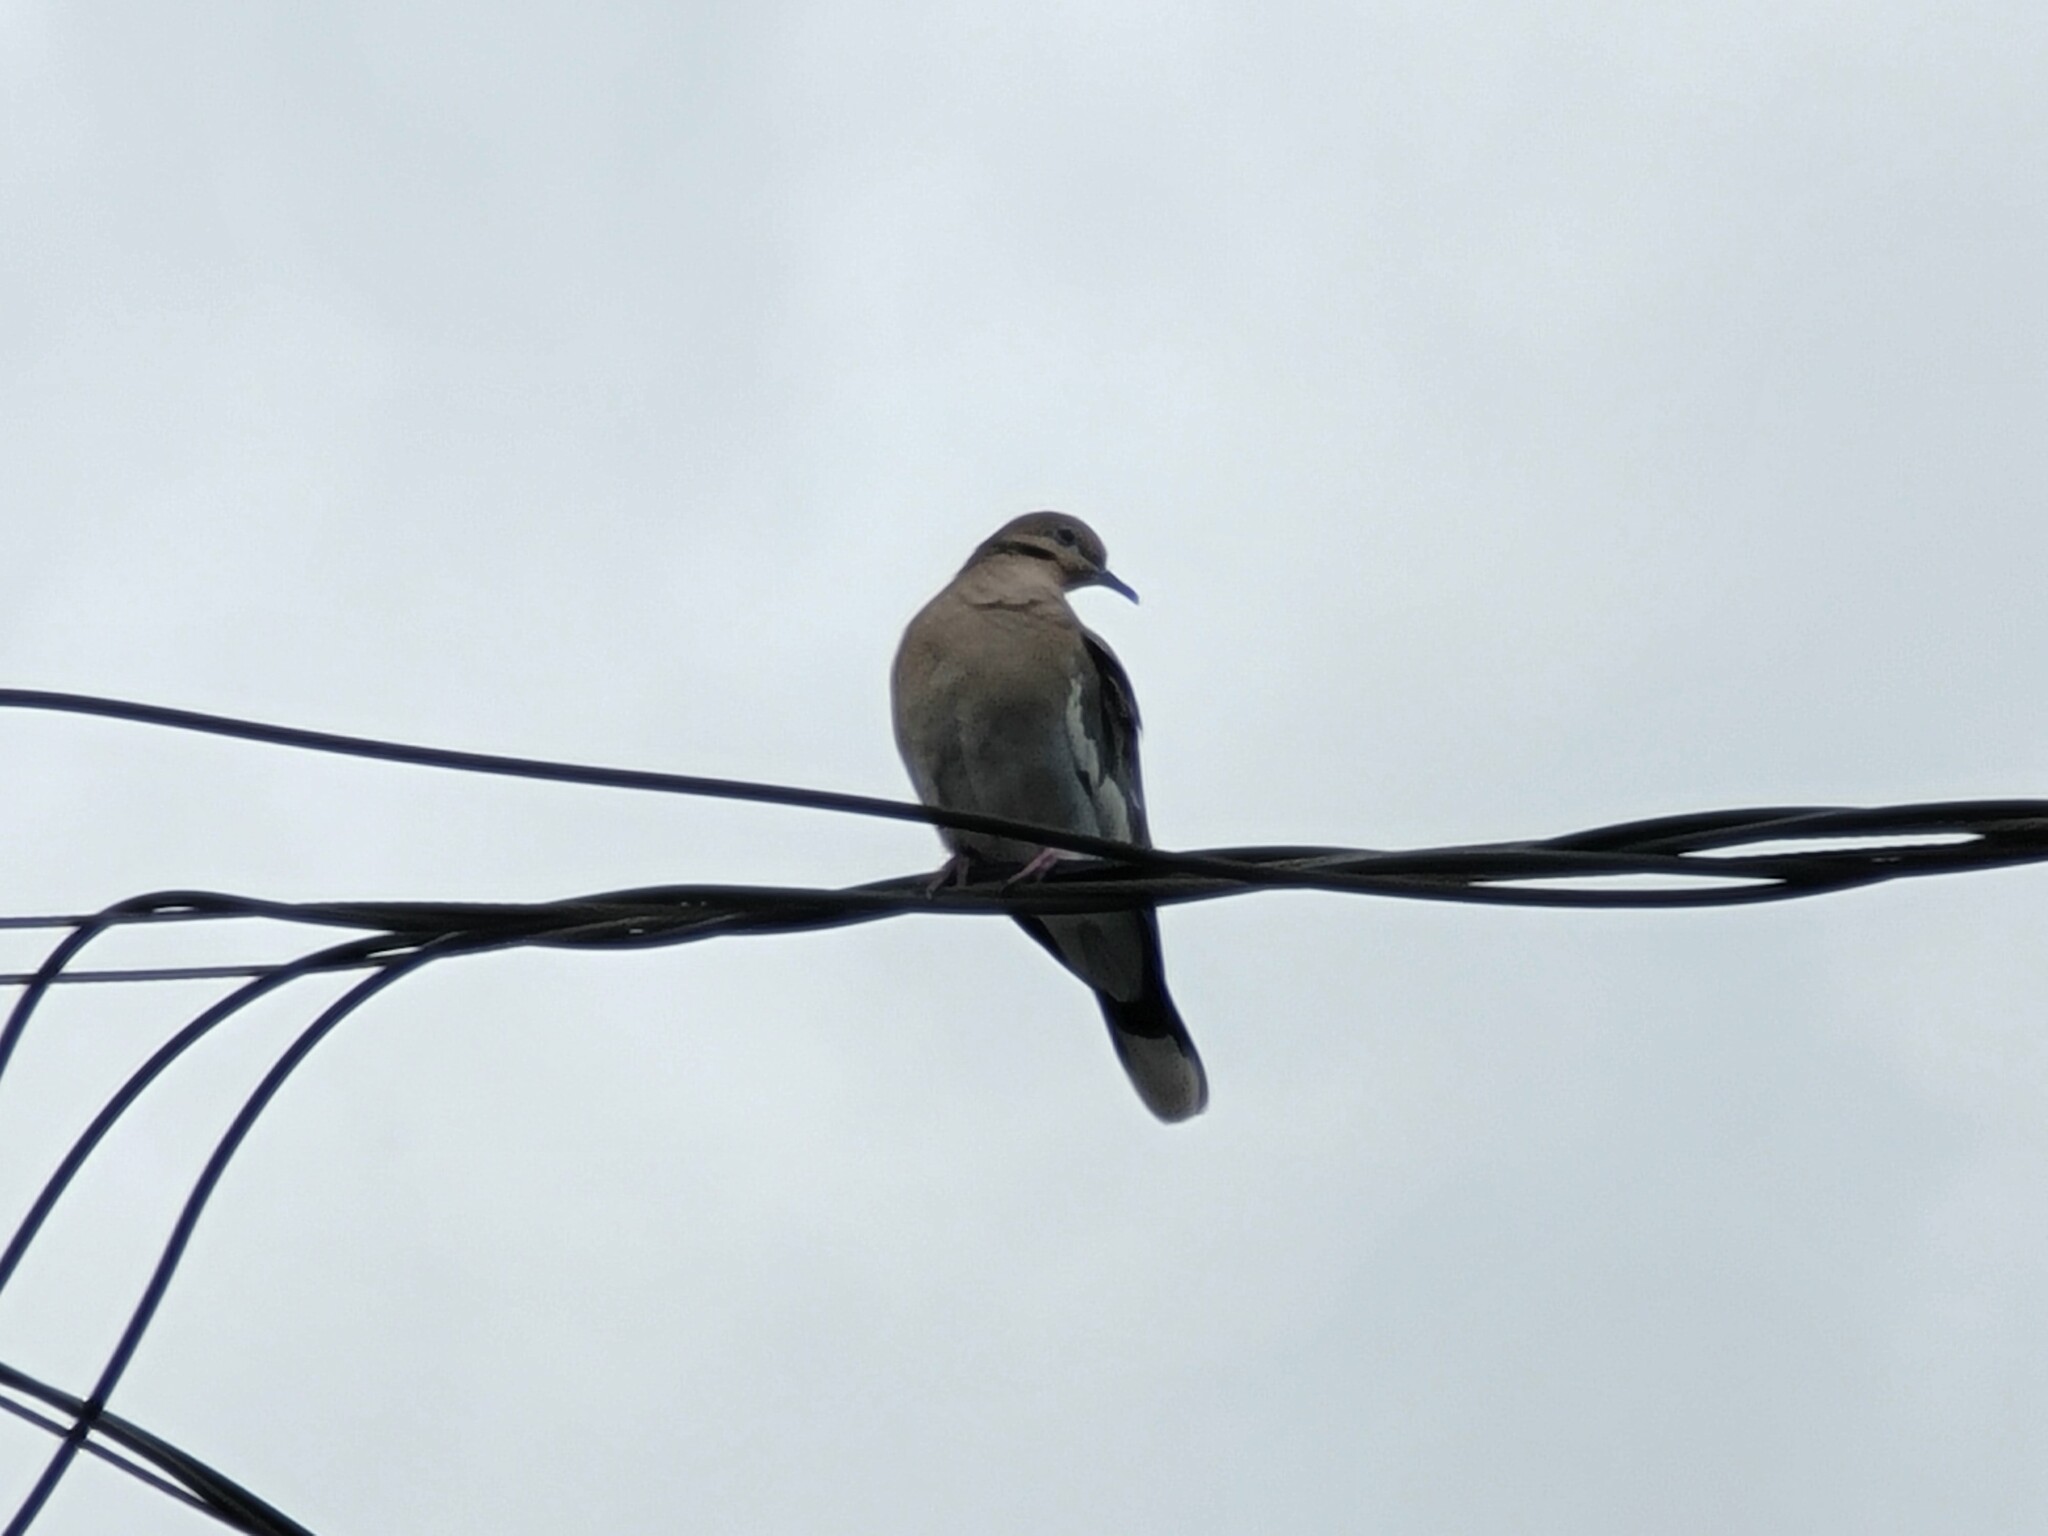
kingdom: Animalia
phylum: Chordata
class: Aves
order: Columbiformes
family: Columbidae
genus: Zenaida
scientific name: Zenaida asiatica
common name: White-winged dove
